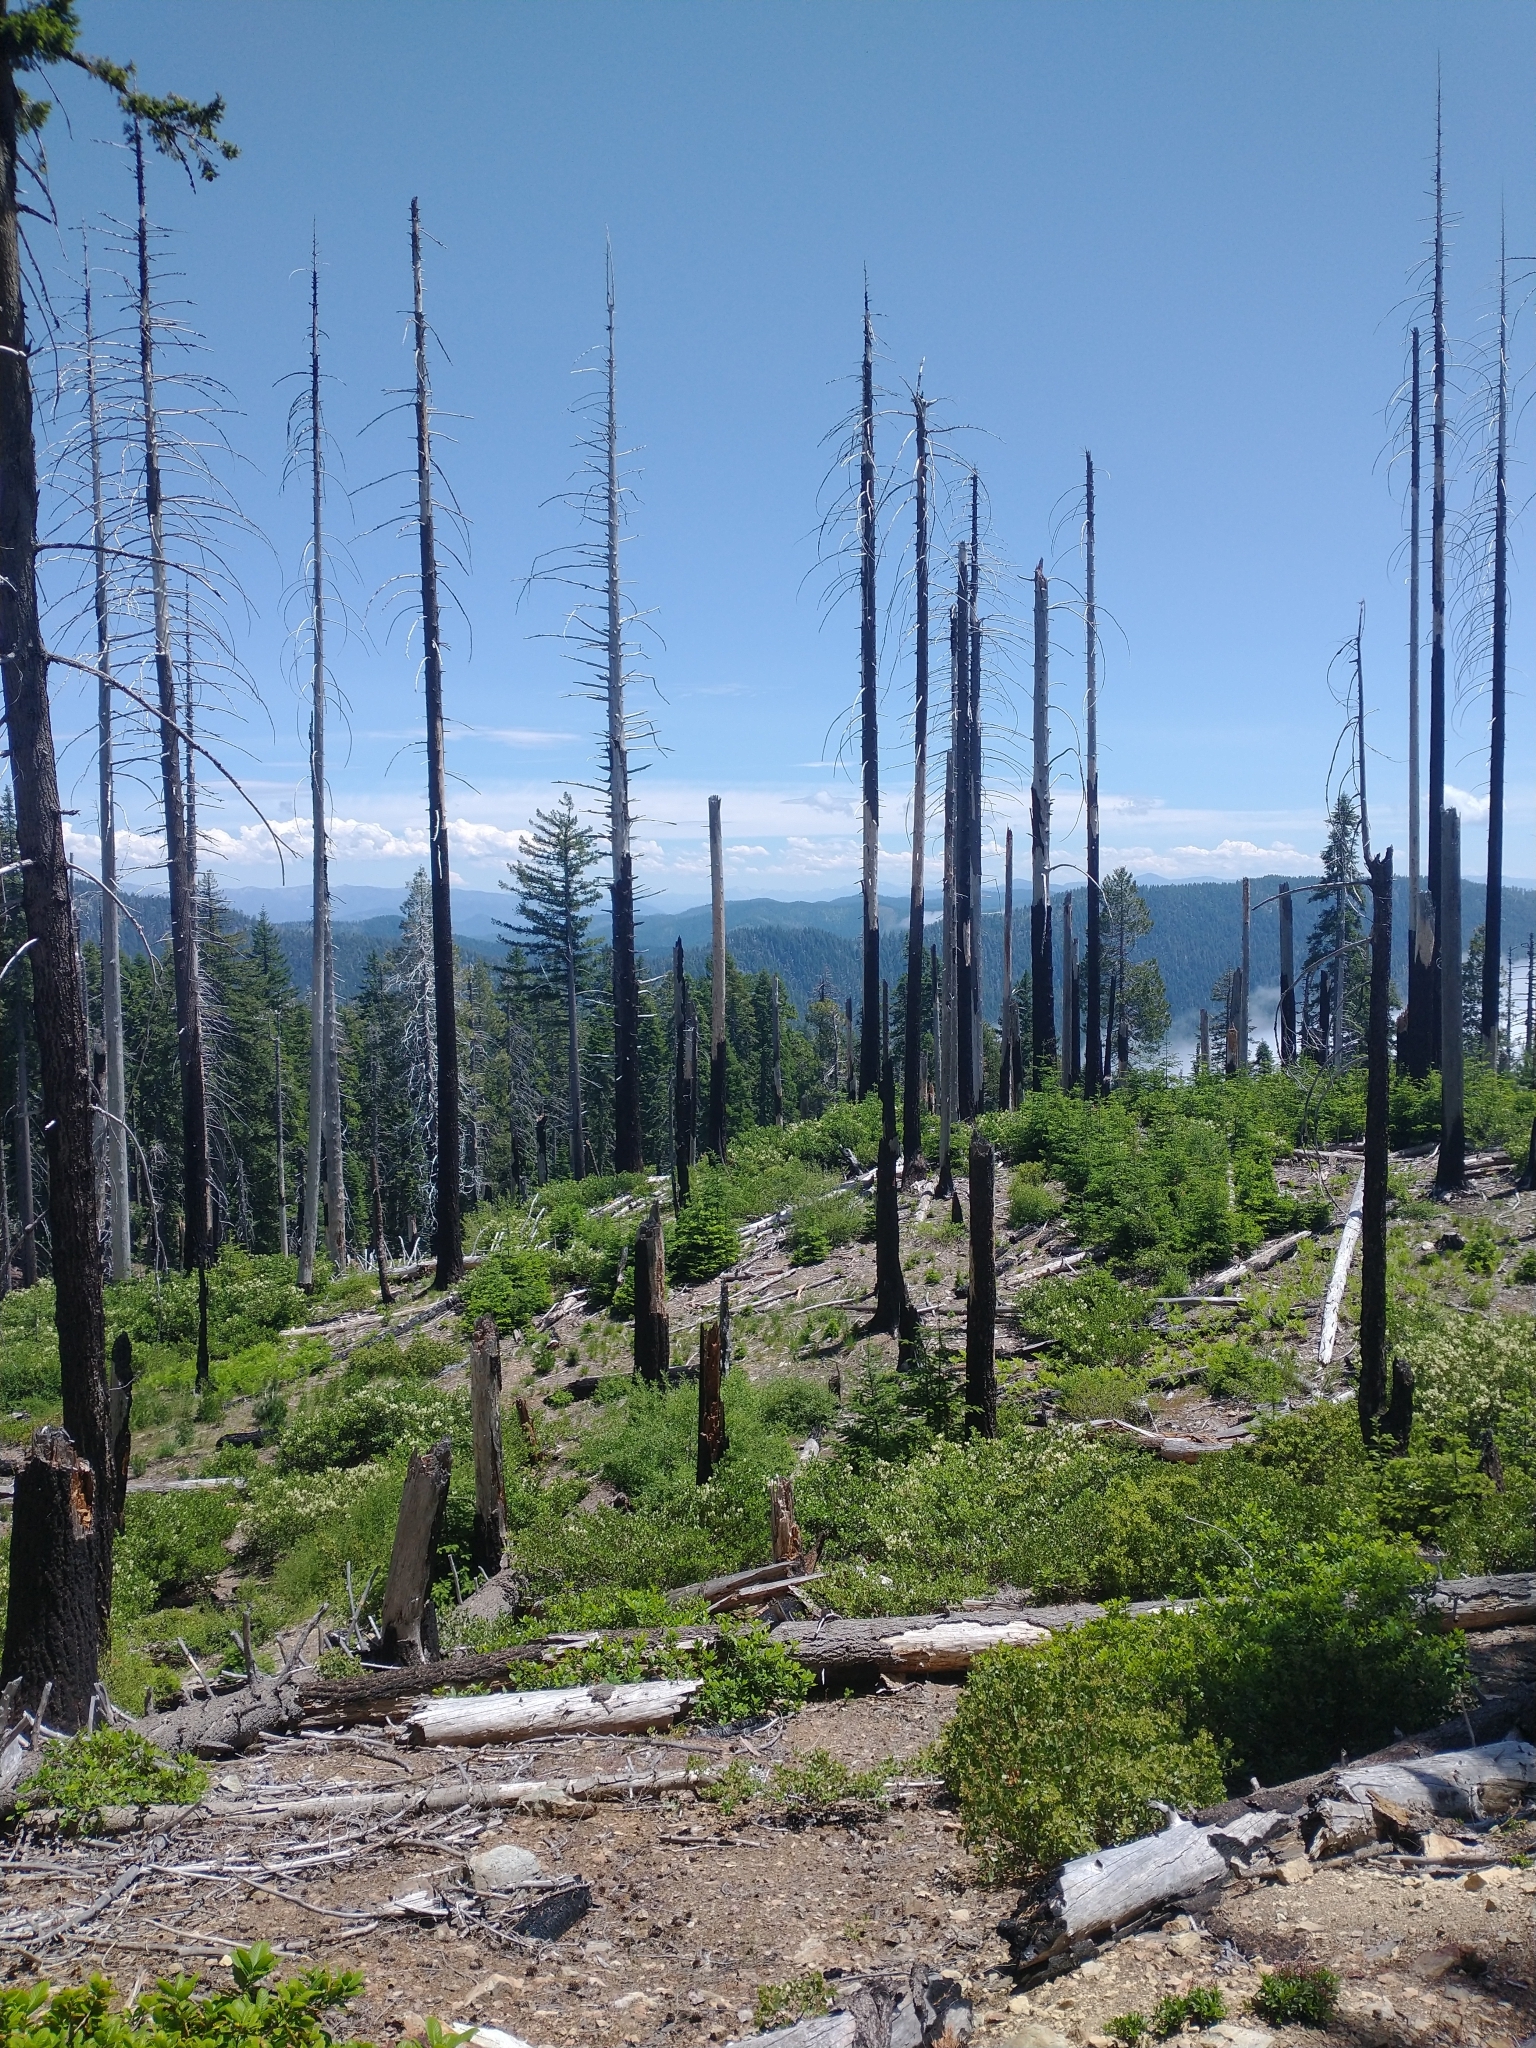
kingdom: Plantae
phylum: Tracheophyta
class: Magnoliopsida
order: Fagales
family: Fagaceae
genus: Quercus
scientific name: Quercus sadleriana
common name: Deer oak
